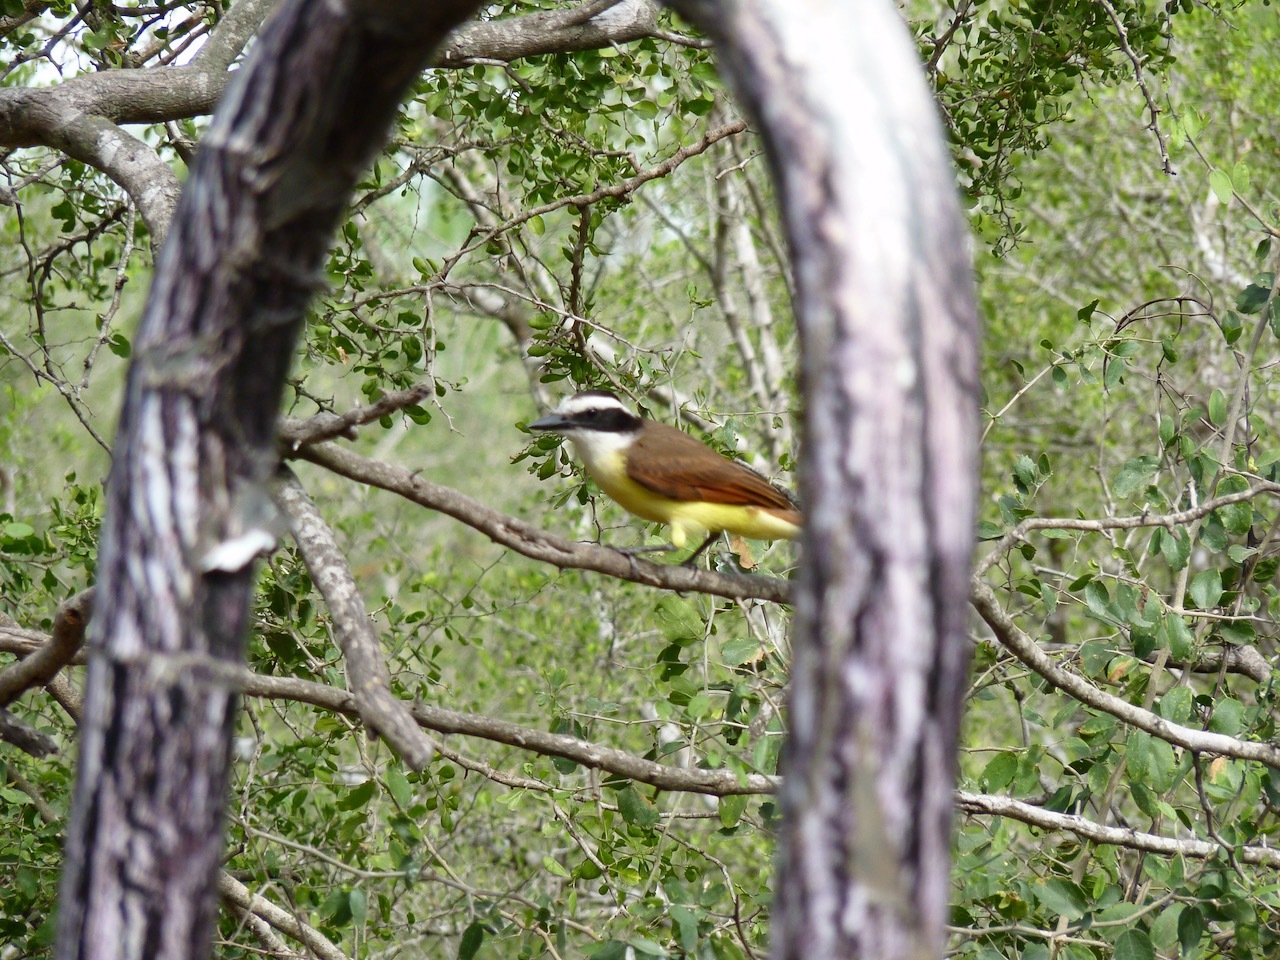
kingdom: Animalia
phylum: Chordata
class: Aves
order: Passeriformes
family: Tyrannidae
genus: Pitangus
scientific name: Pitangus sulphuratus
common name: Great kiskadee
